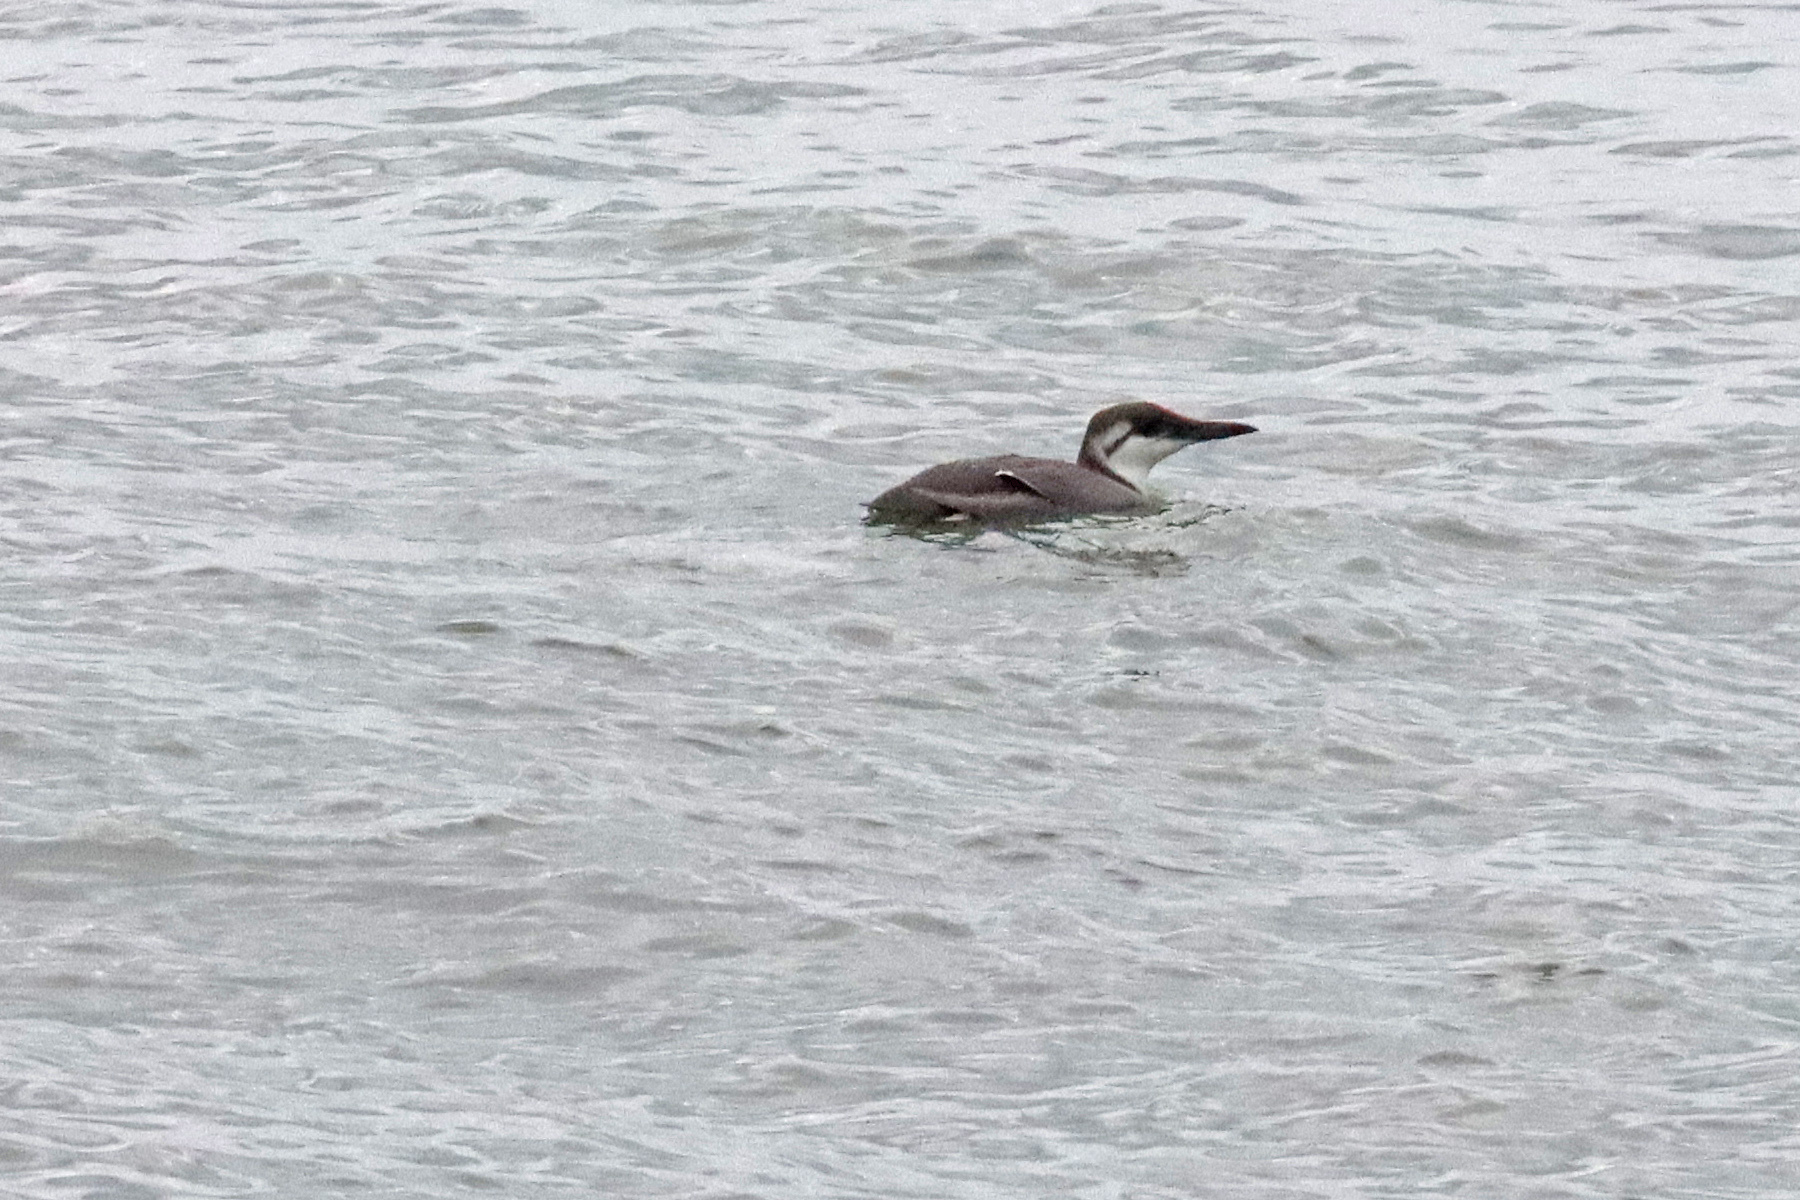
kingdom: Animalia
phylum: Chordata
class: Aves
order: Charadriiformes
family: Alcidae
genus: Uria
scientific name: Uria aalge
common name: Common murre
